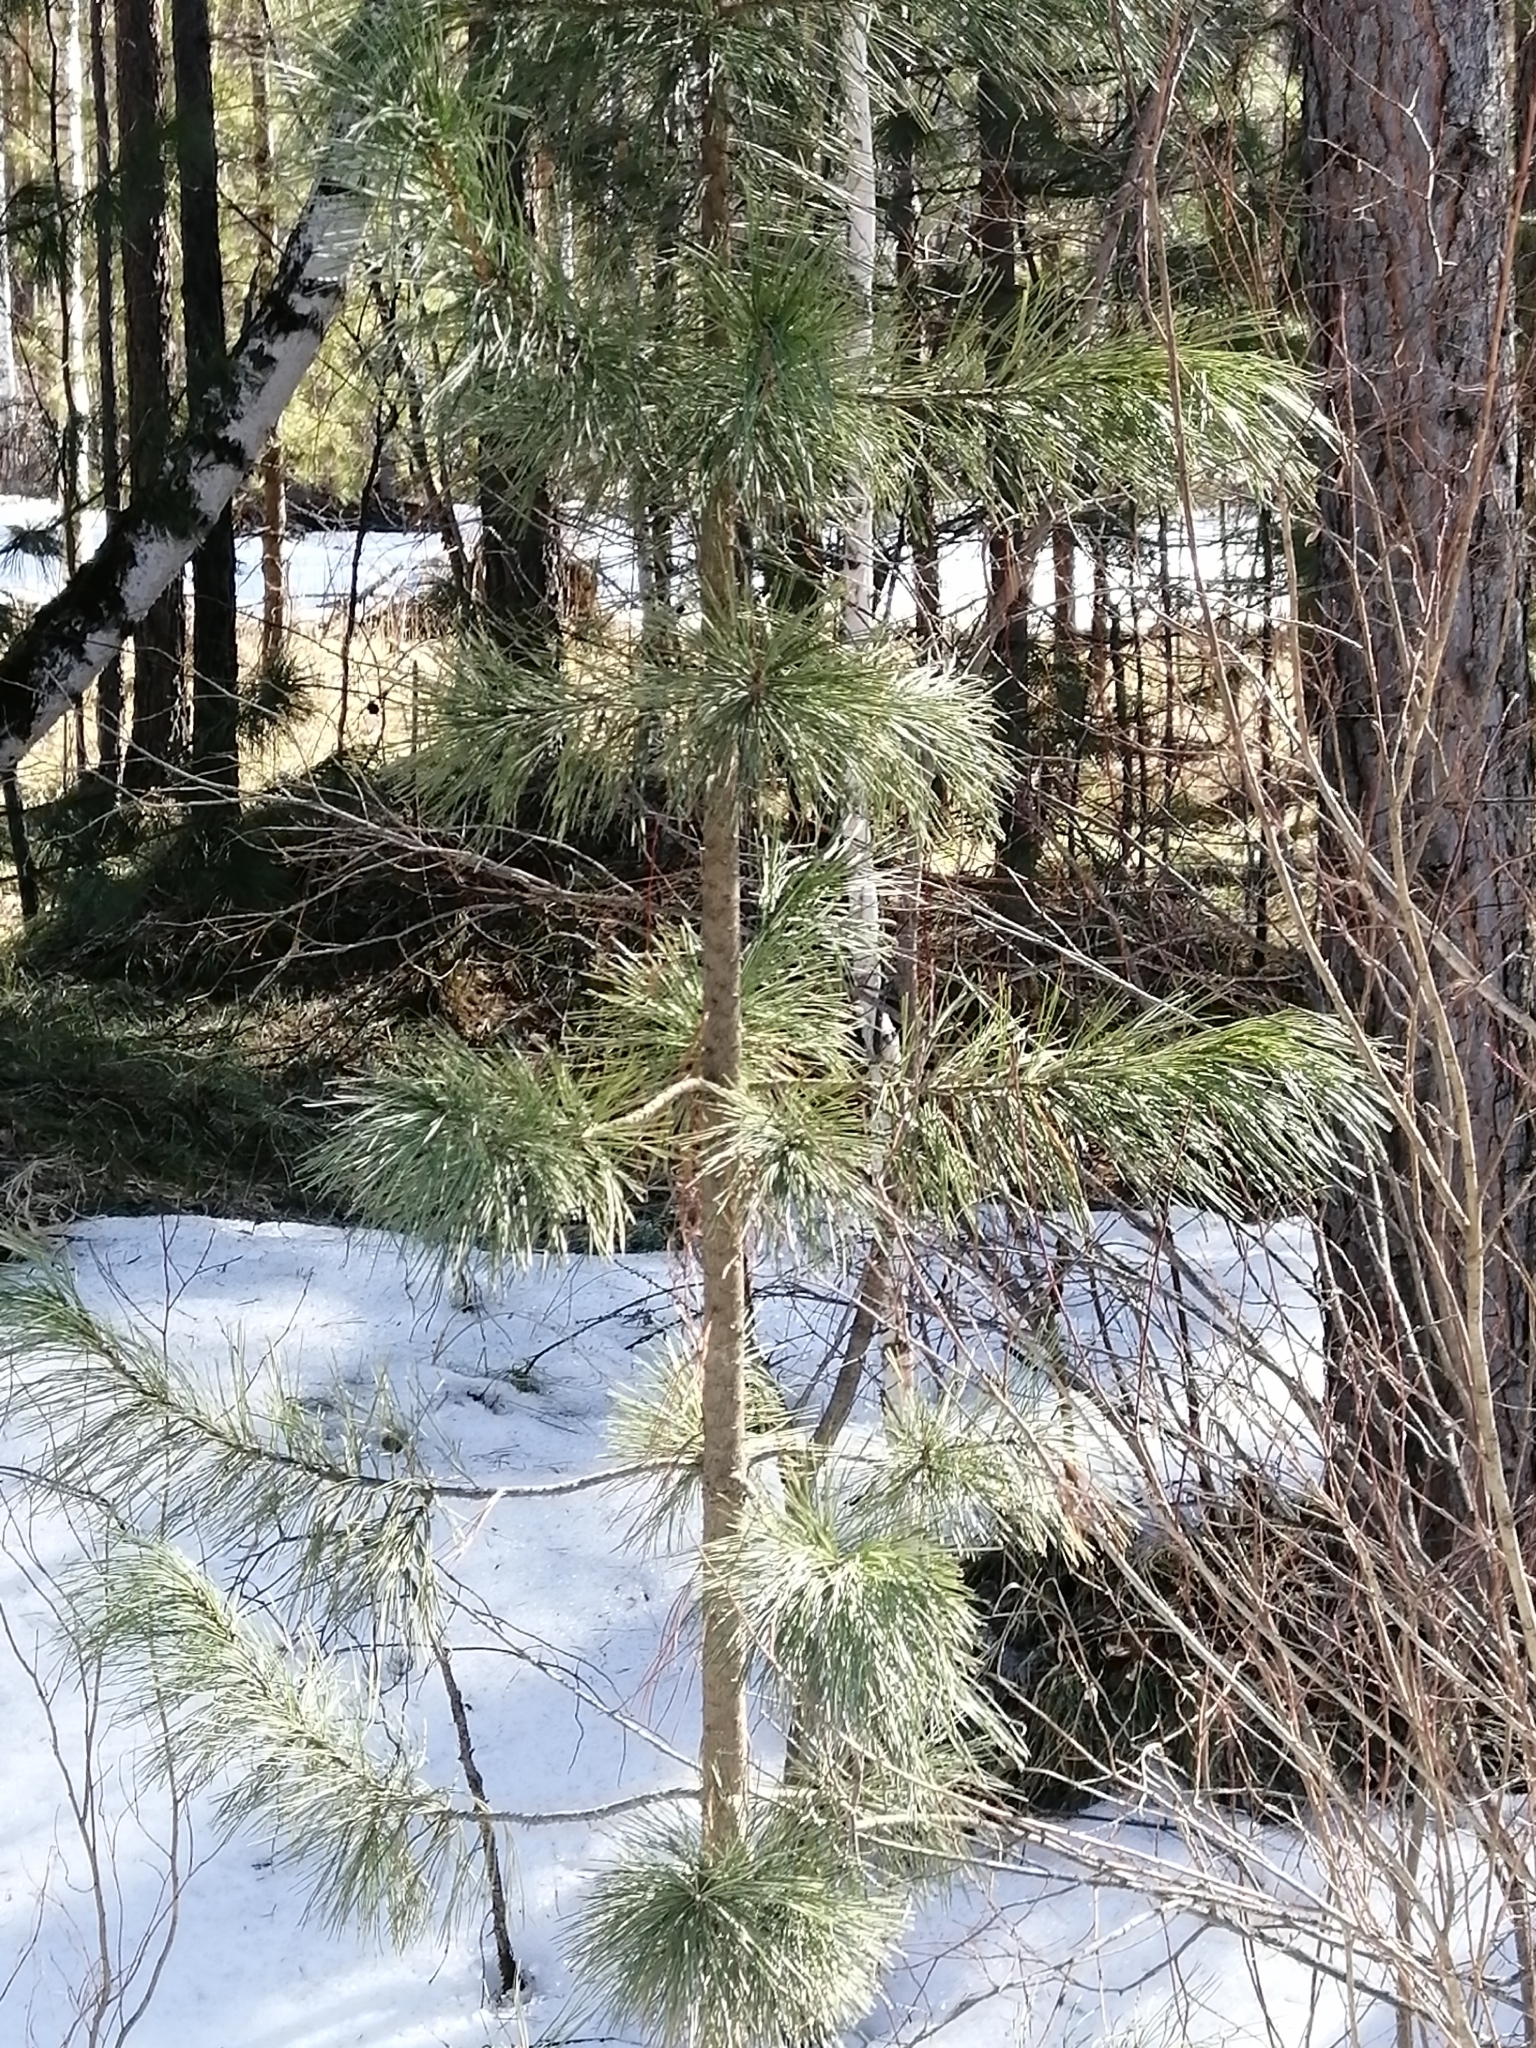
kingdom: Plantae
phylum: Tracheophyta
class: Pinopsida
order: Pinales
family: Pinaceae
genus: Pinus
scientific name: Pinus sibirica
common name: Siberian pine
